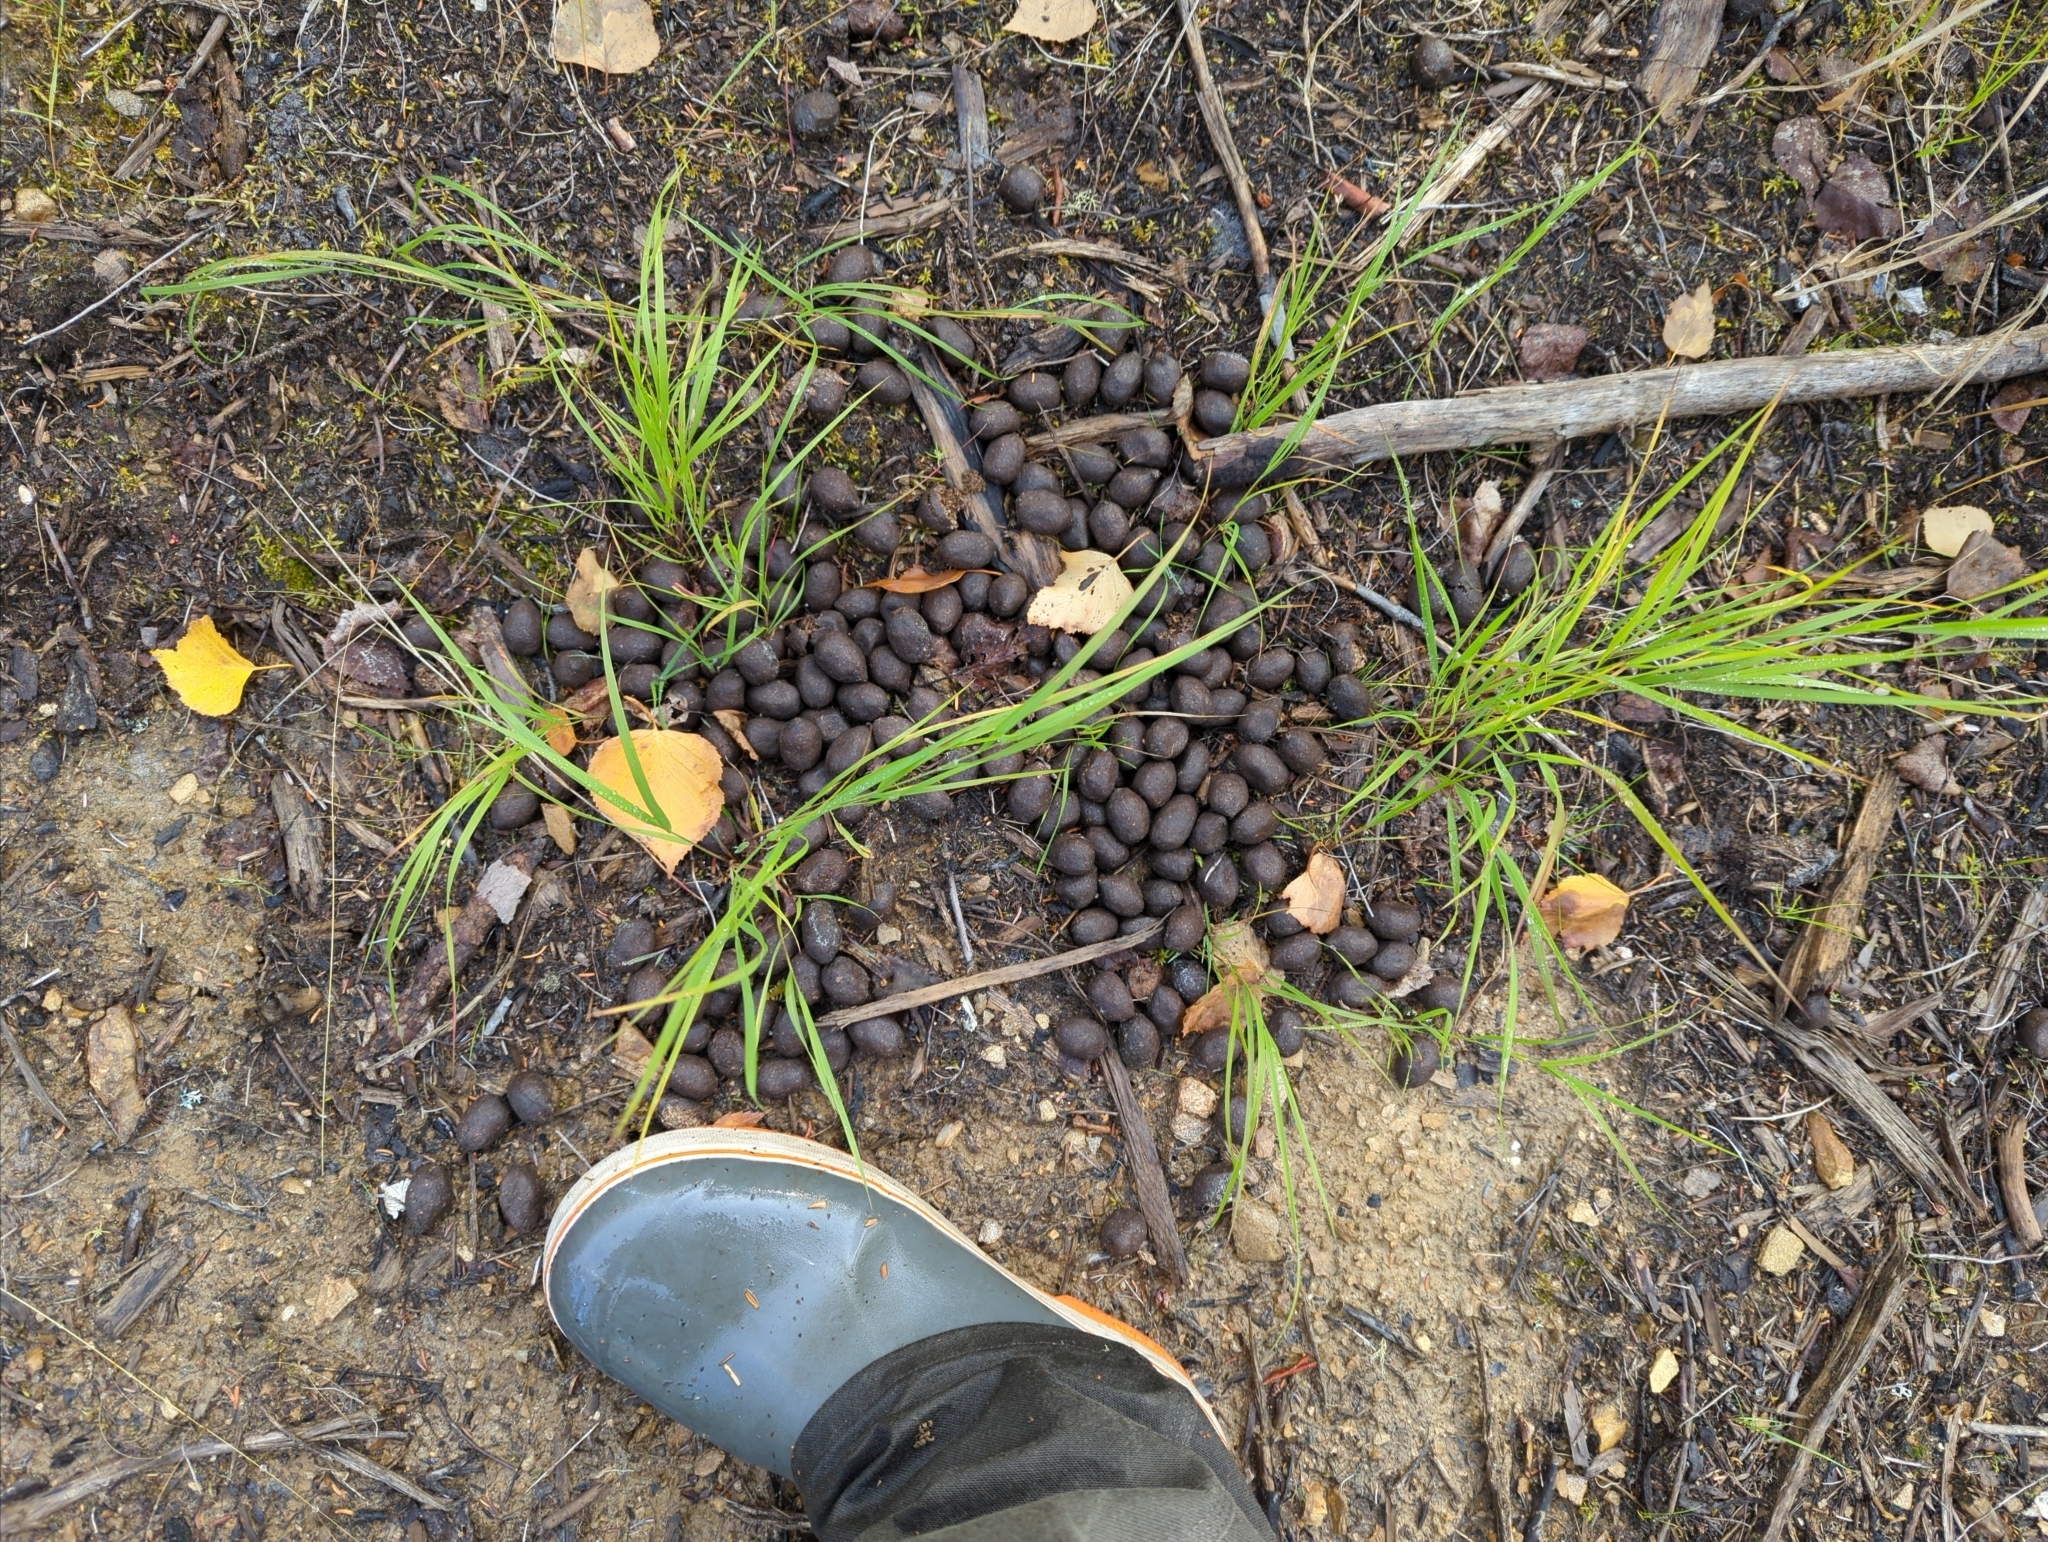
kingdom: Animalia
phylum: Chordata
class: Mammalia
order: Artiodactyla
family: Cervidae
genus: Alces
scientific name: Alces alces
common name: Moose
